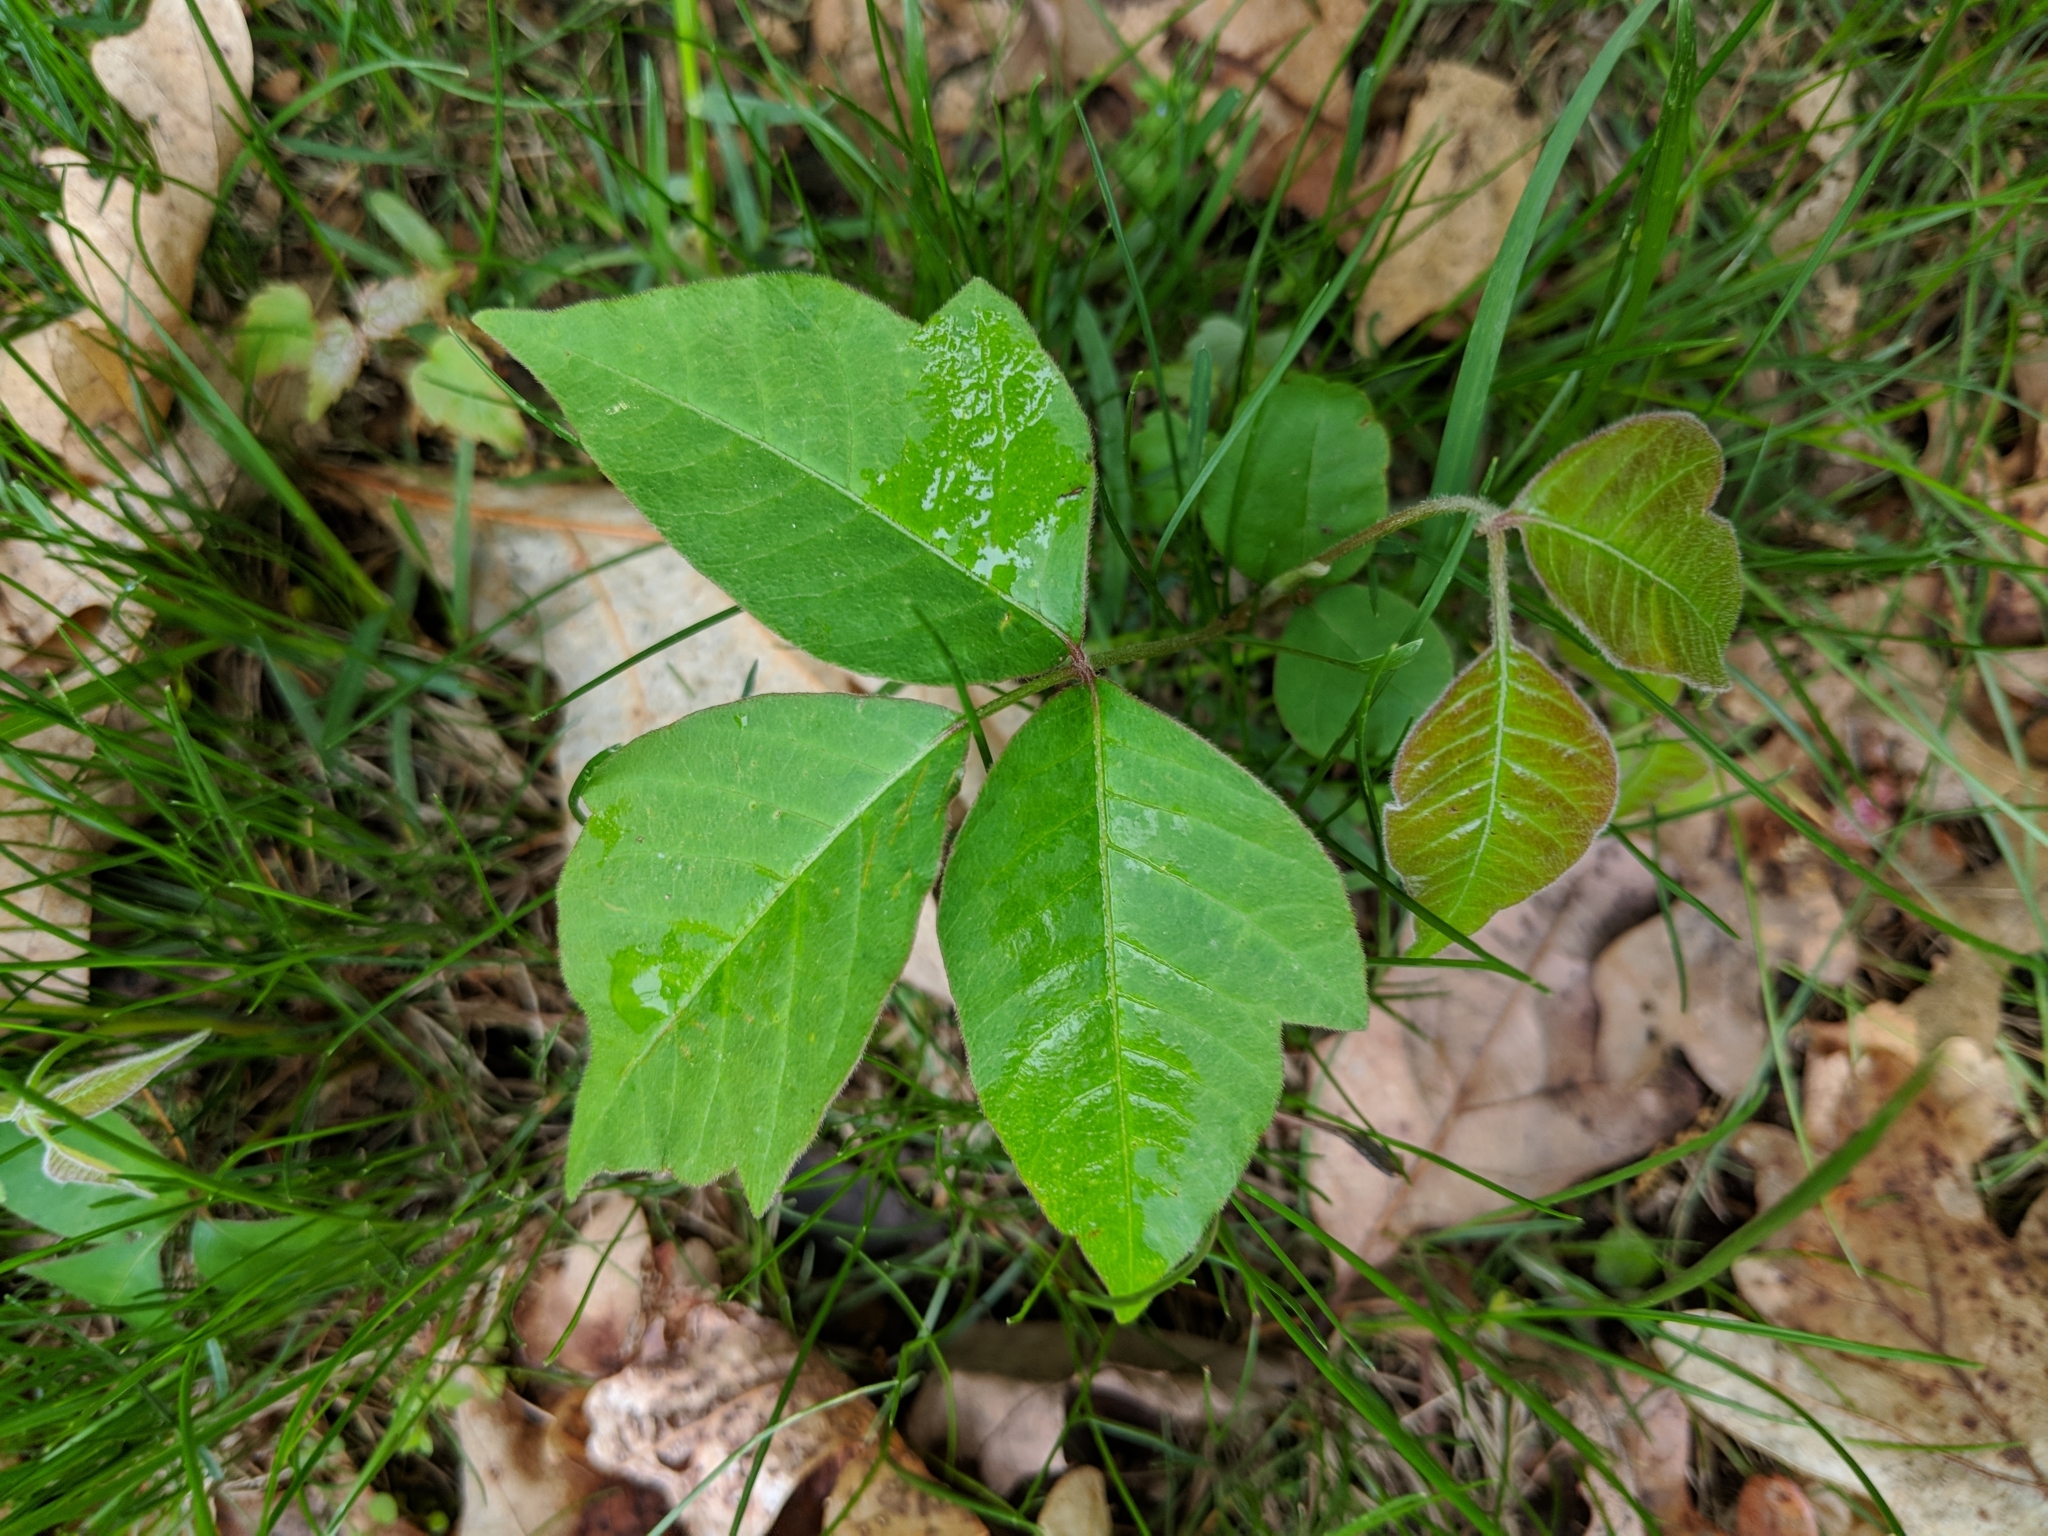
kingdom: Plantae
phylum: Tracheophyta
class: Magnoliopsida
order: Sapindales
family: Anacardiaceae
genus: Toxicodendron
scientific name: Toxicodendron radicans
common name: Poison ivy
